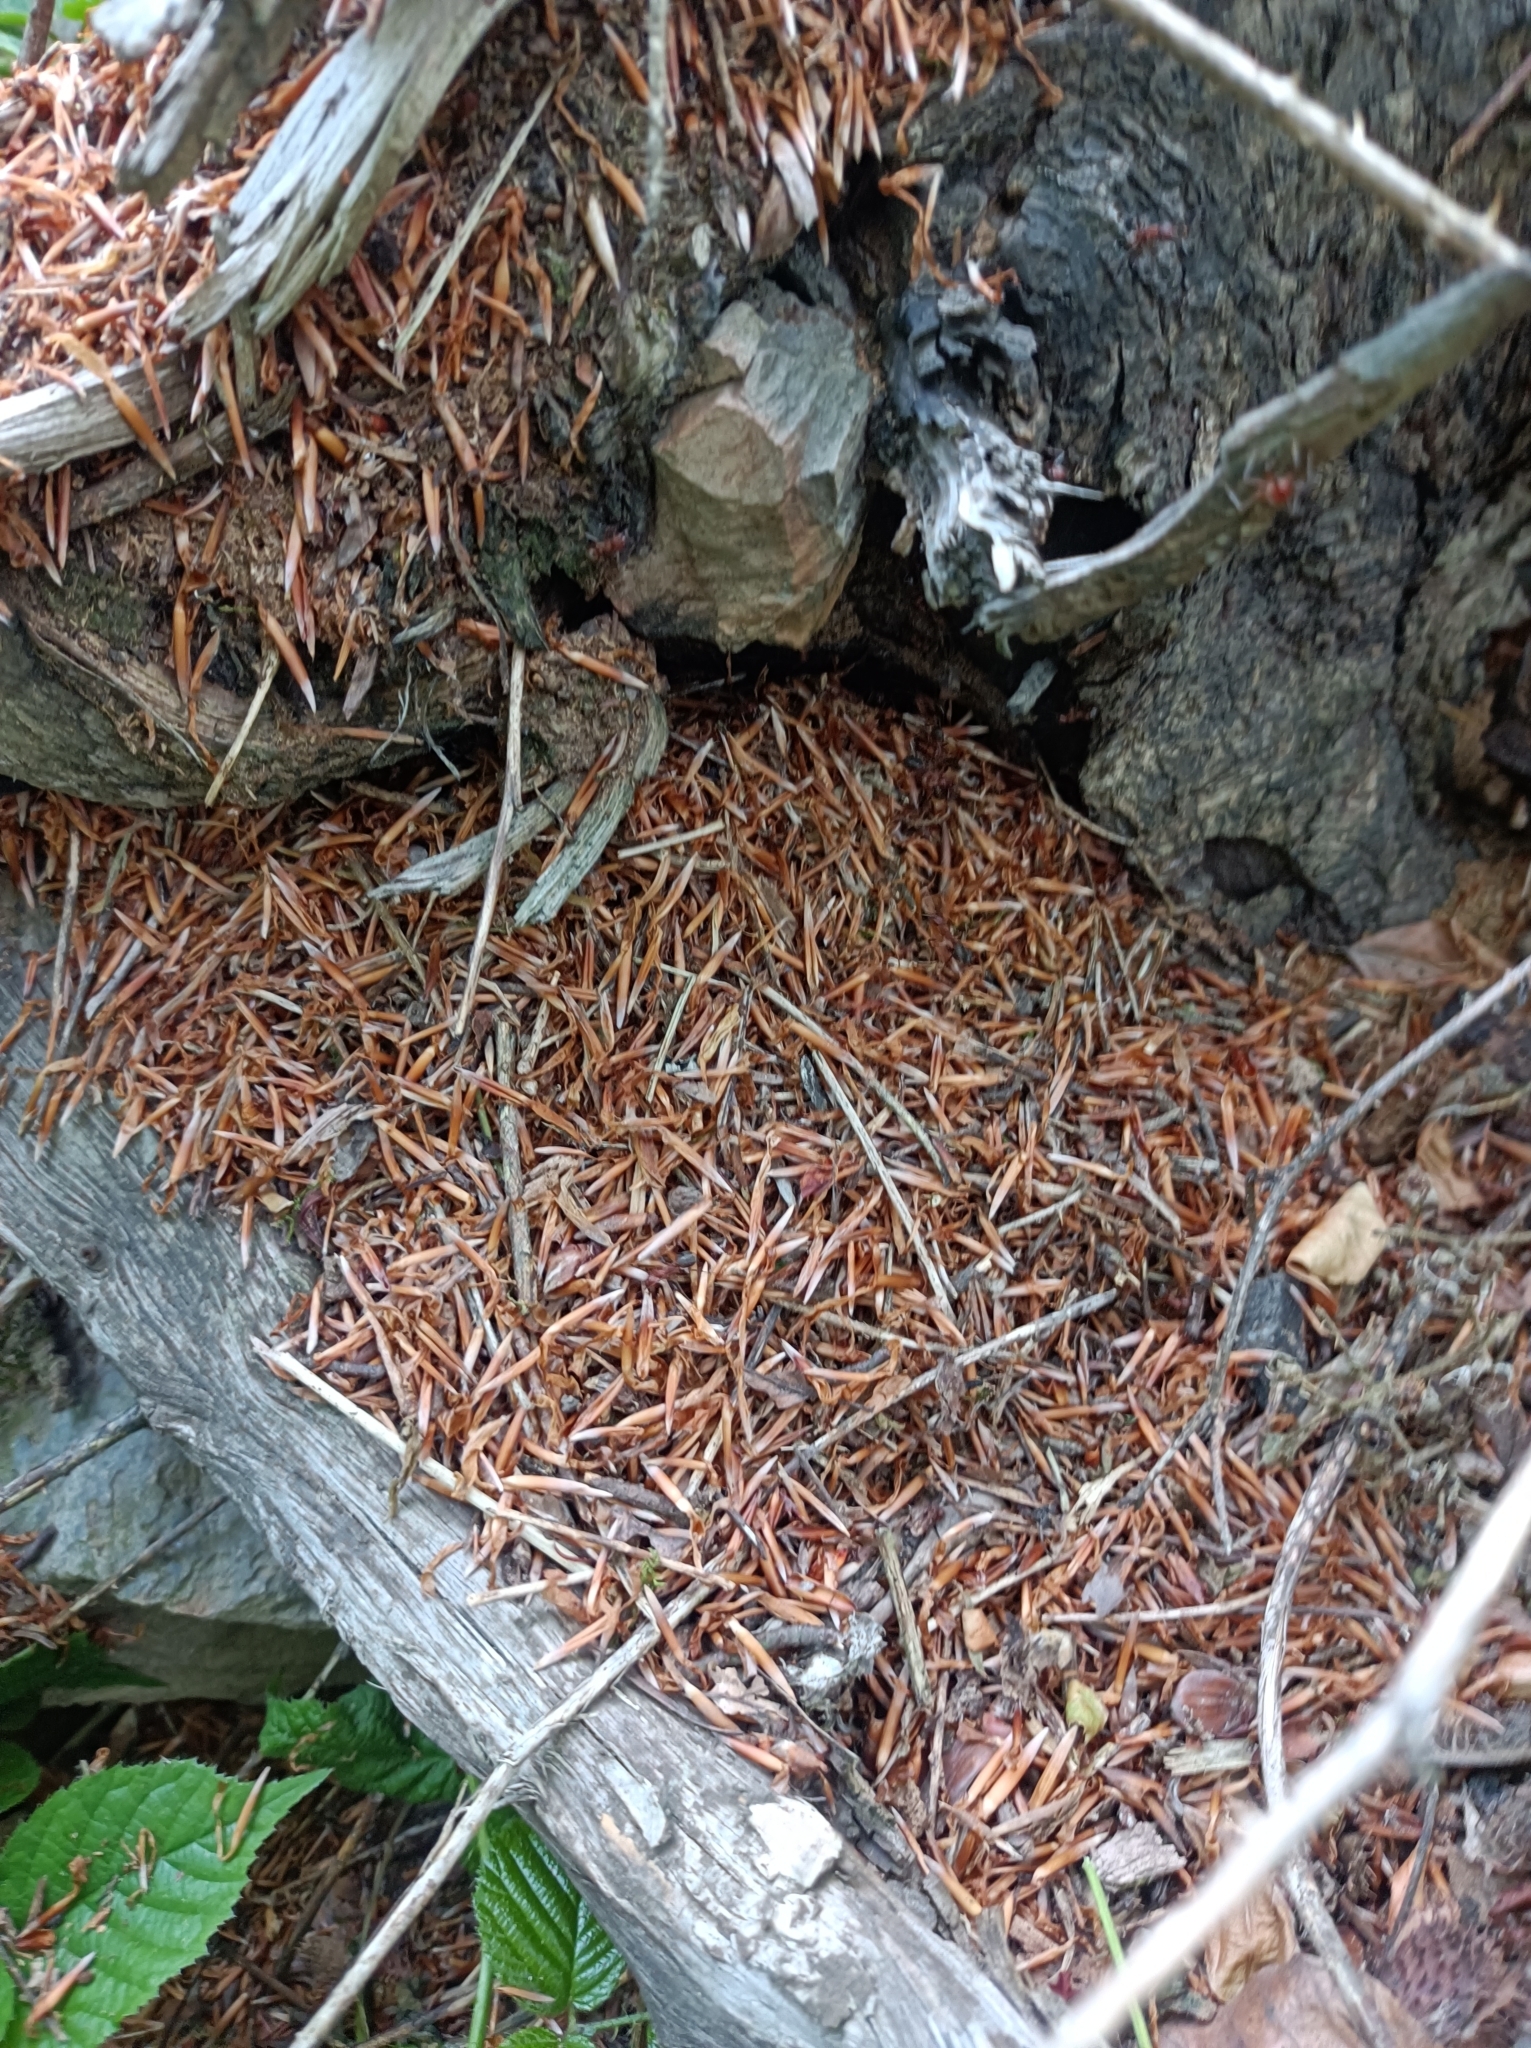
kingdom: Animalia
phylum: Arthropoda
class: Insecta
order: Hymenoptera
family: Formicidae
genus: Formica
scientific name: Formica truncorum
